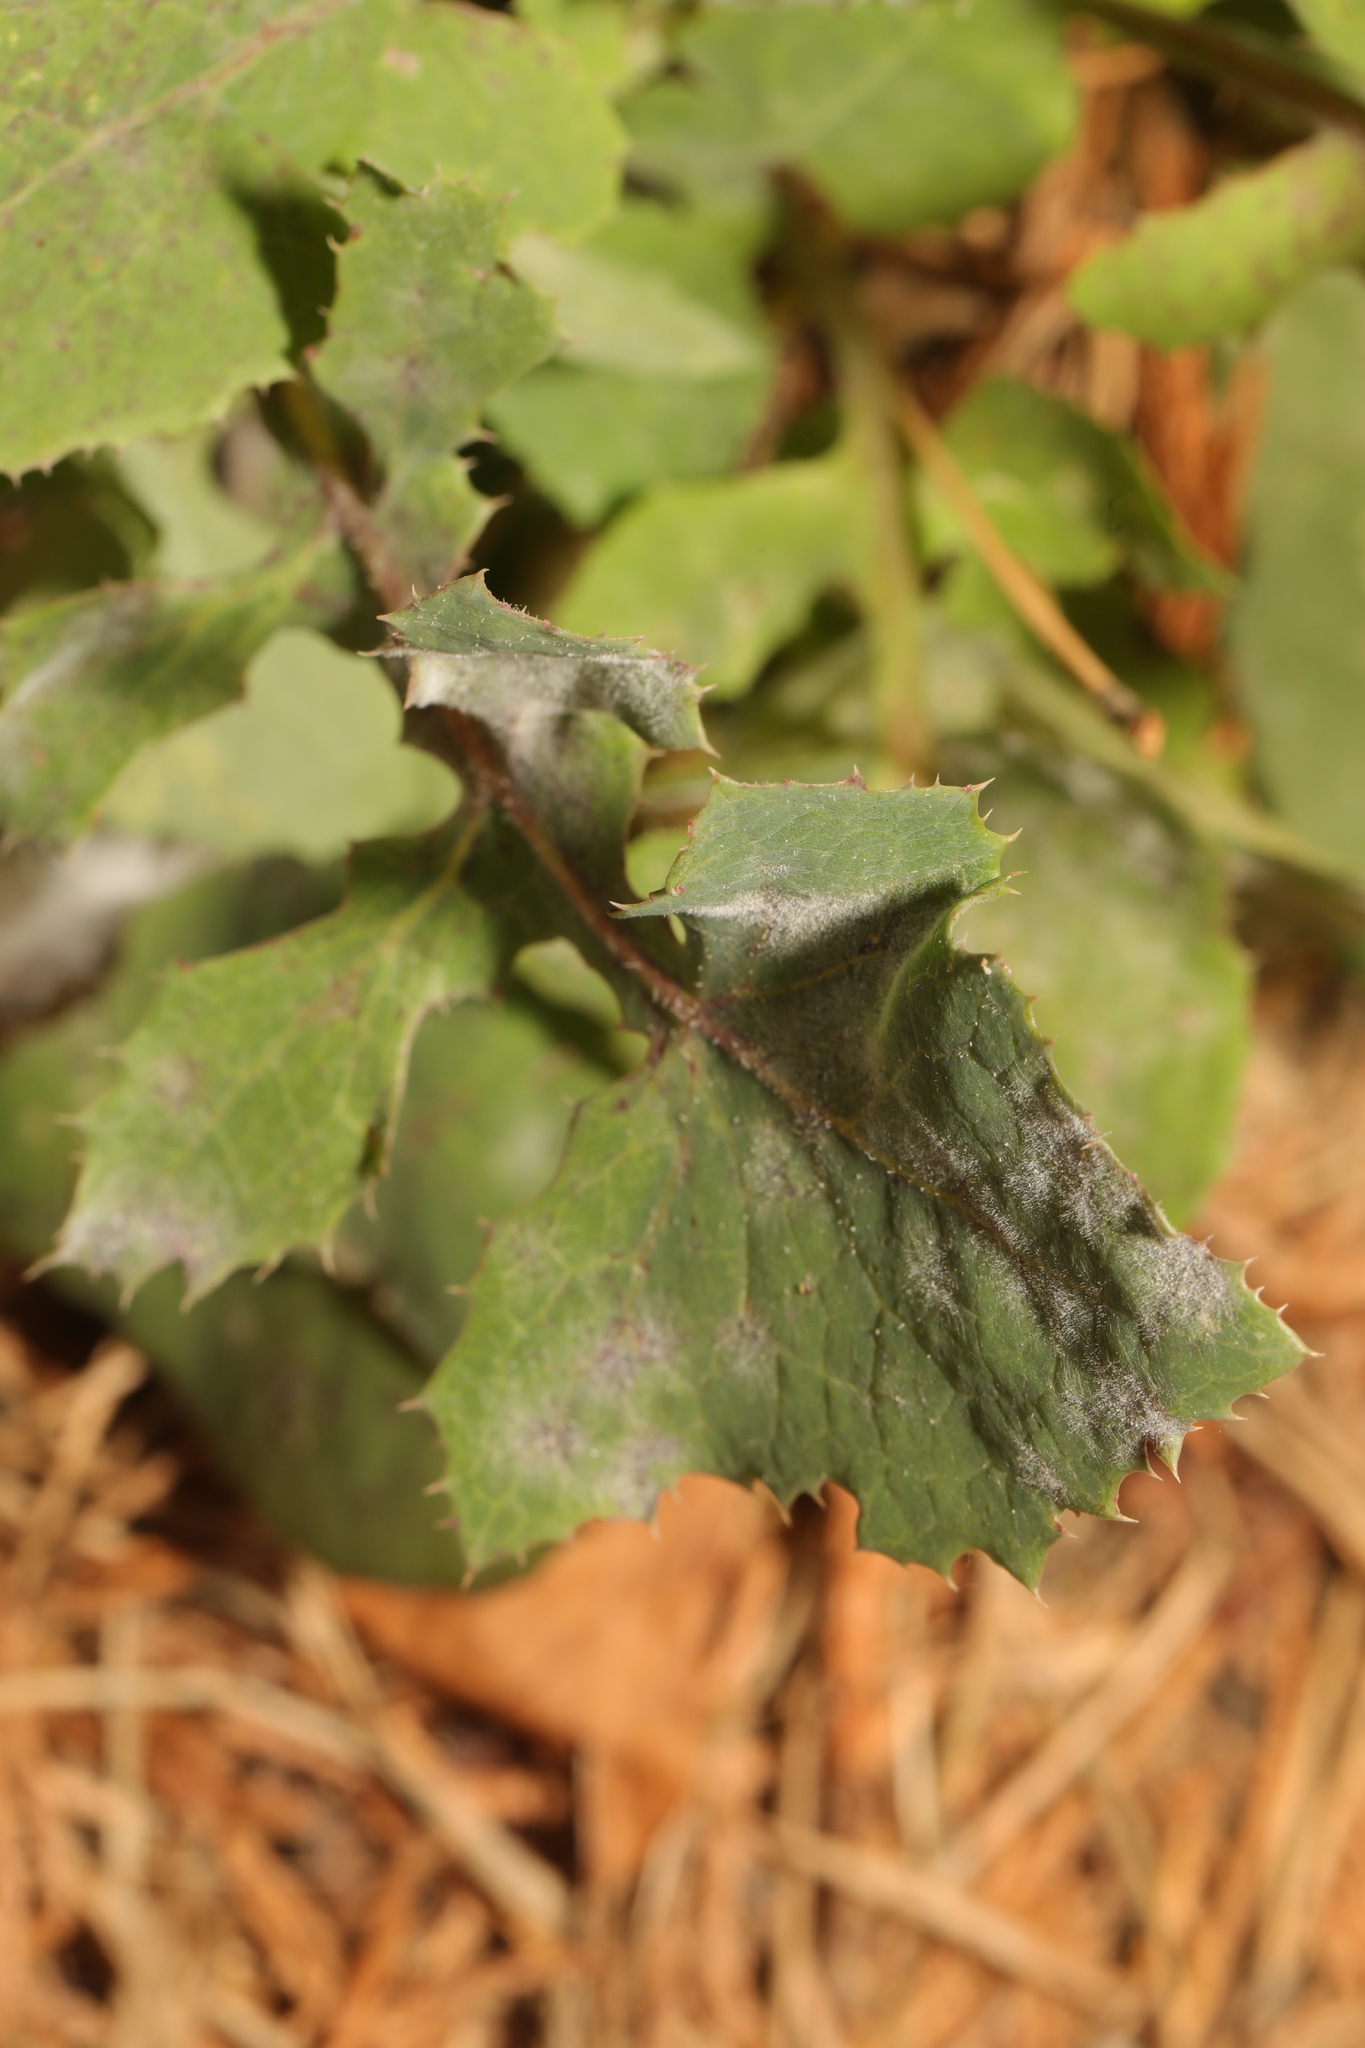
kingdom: Fungi
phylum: Ascomycota
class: Leotiomycetes
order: Helotiales
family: Erysiphaceae
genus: Golovinomyces
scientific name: Golovinomyces sonchicola
